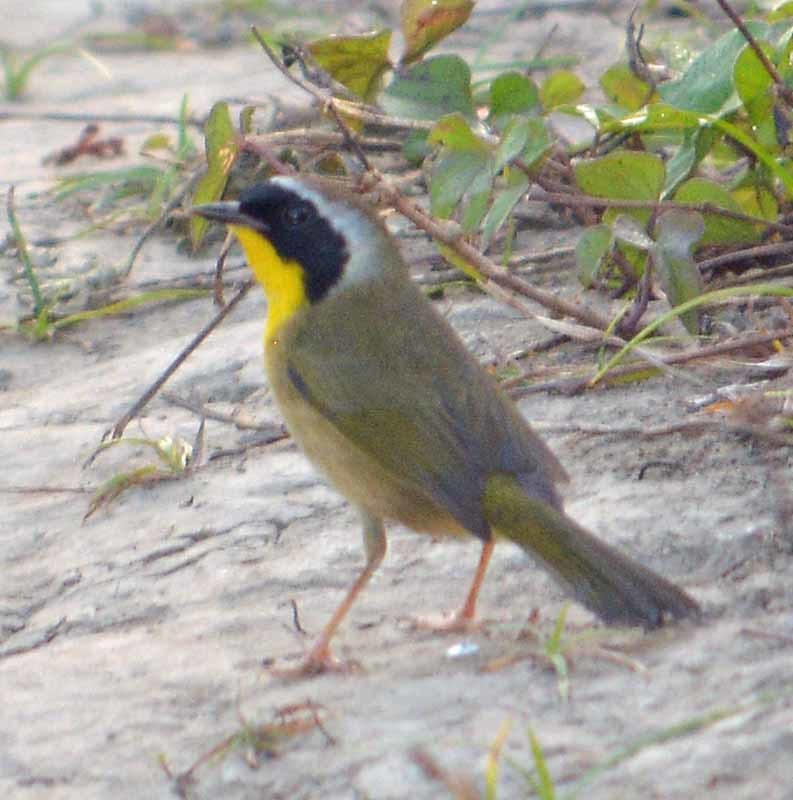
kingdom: Animalia
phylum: Chordata
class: Aves
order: Passeriformes
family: Parulidae
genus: Geothlypis
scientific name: Geothlypis trichas
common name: Common yellowthroat
